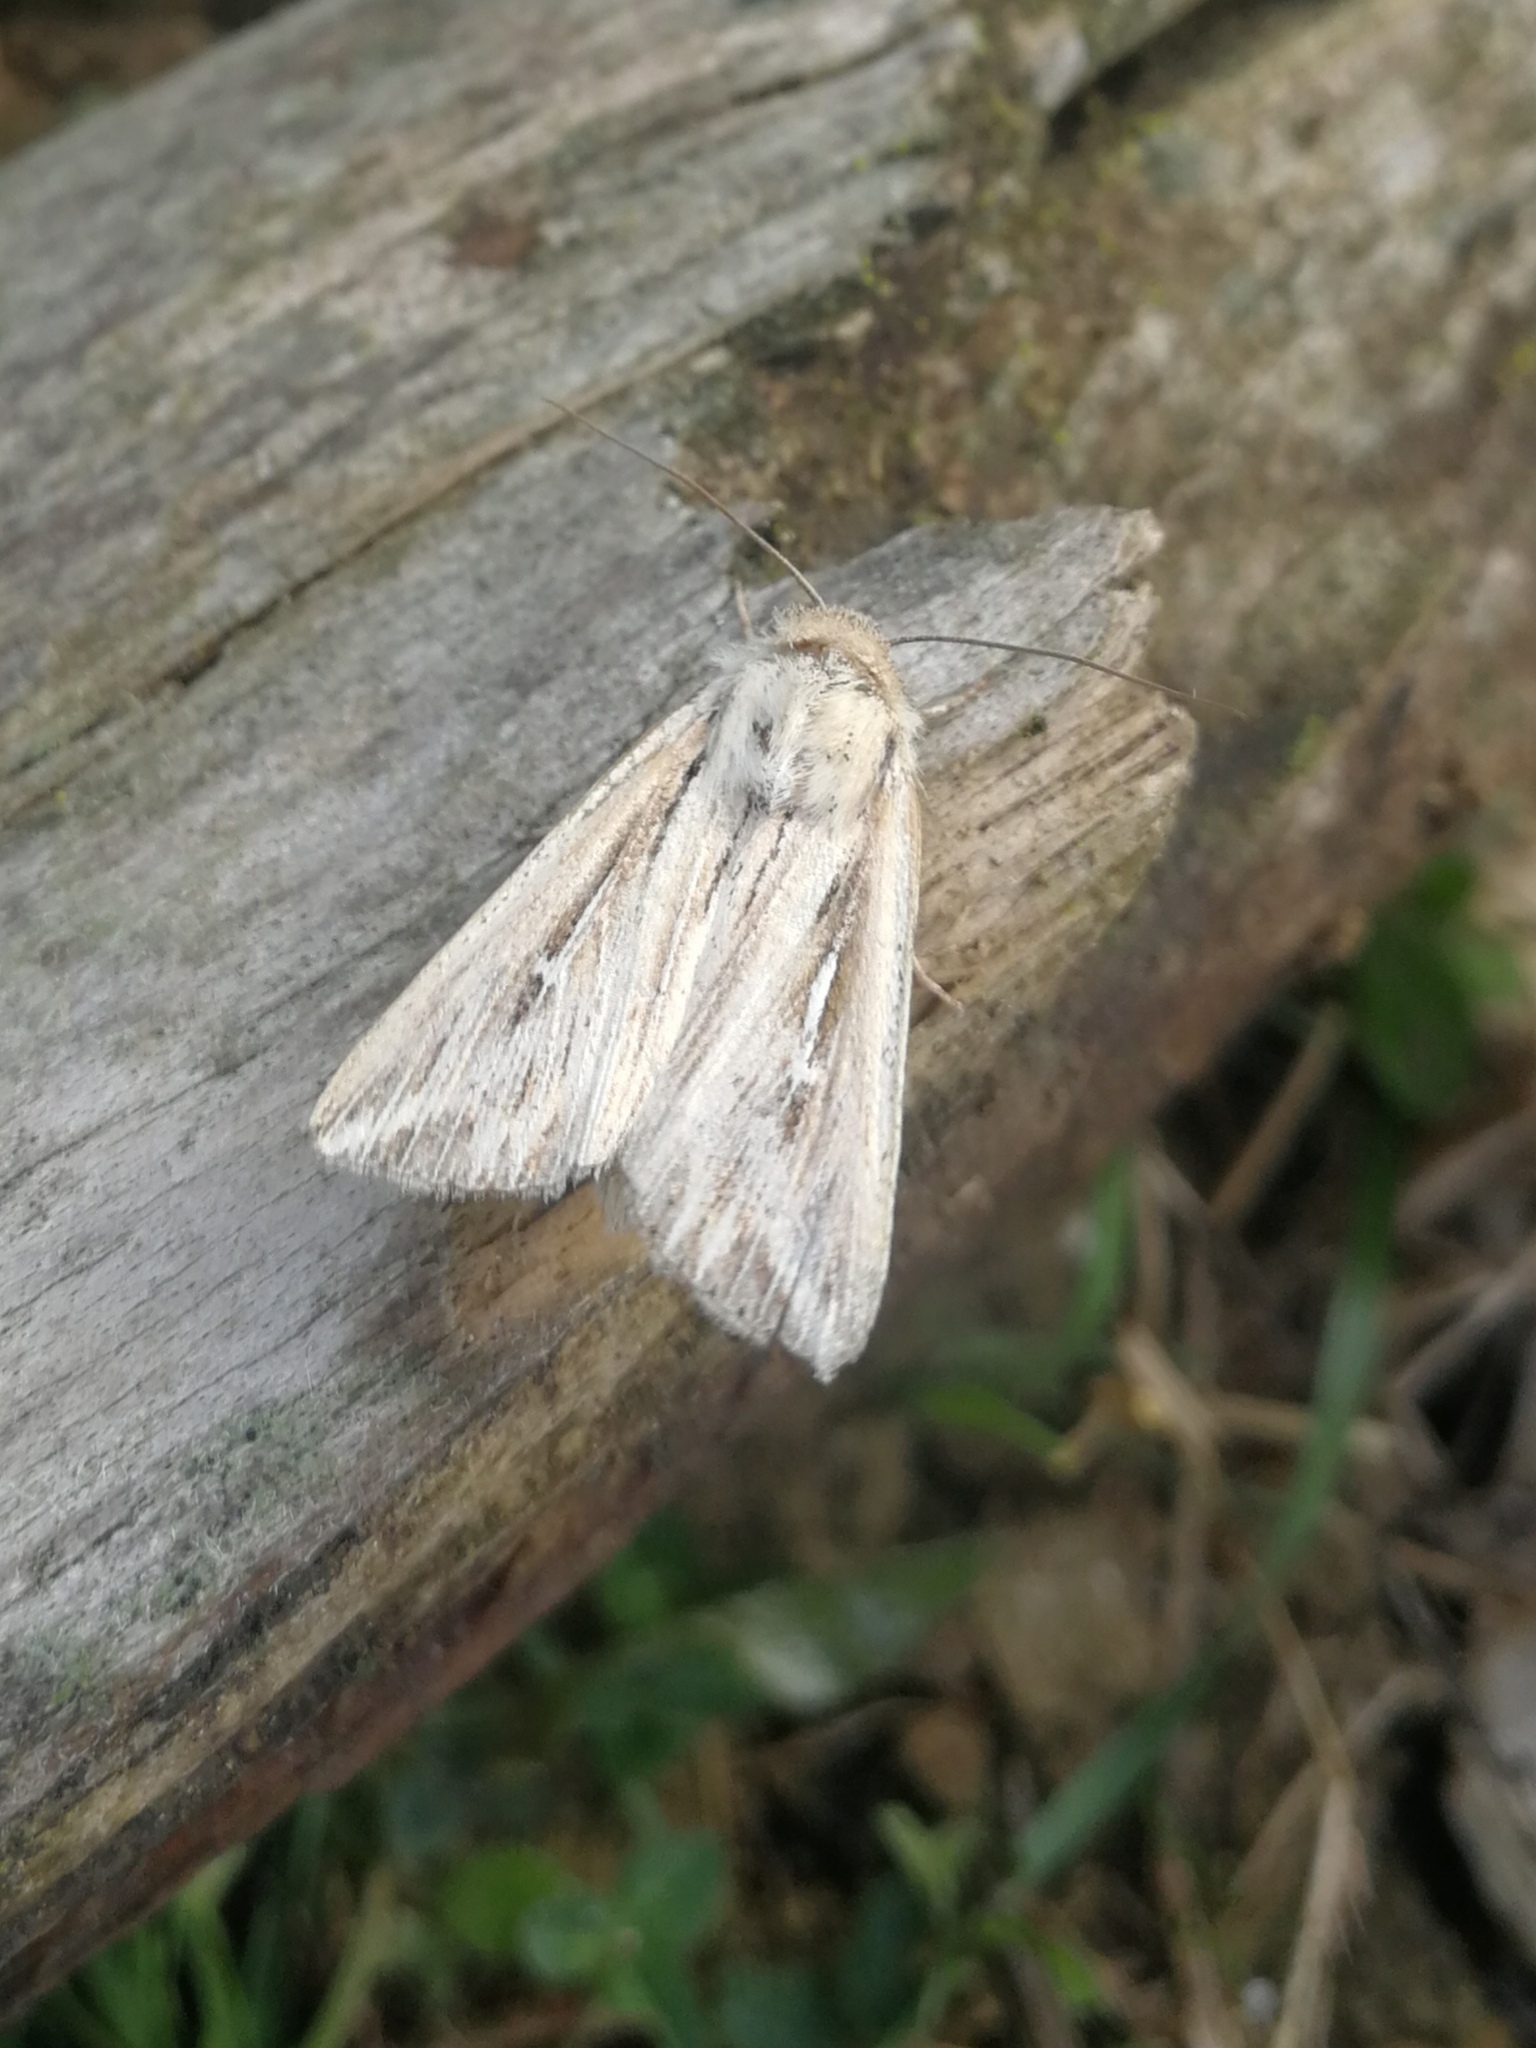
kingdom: Animalia
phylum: Arthropoda
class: Insecta
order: Lepidoptera
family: Noctuidae
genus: Mythimna
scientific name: Mythimna l-album
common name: L-album wainscot
